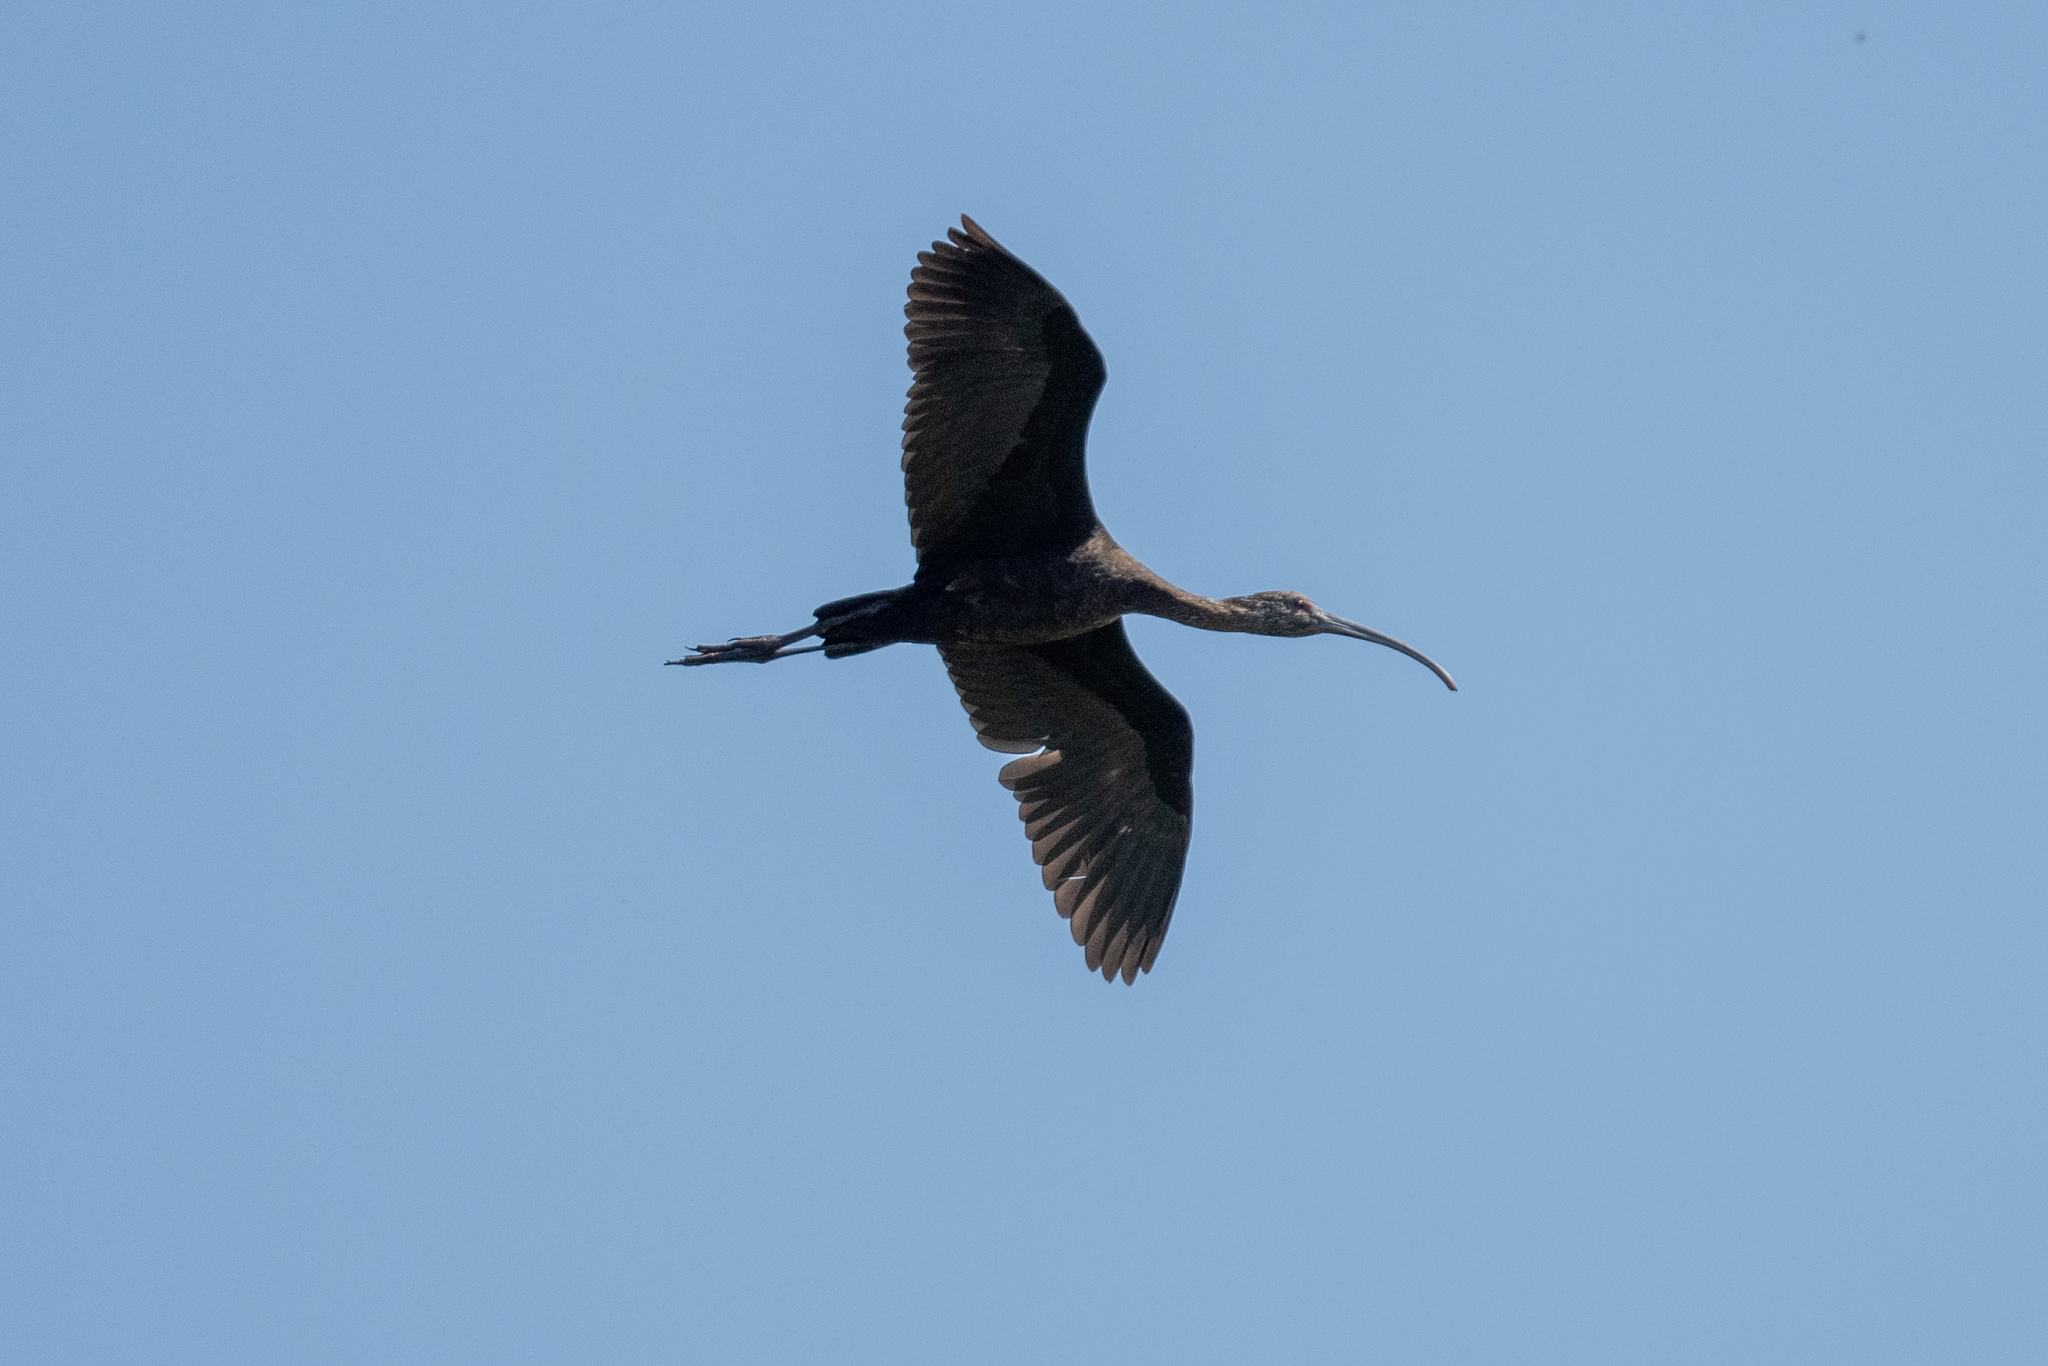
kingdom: Animalia
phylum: Chordata
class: Aves
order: Pelecaniformes
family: Threskiornithidae
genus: Plegadis
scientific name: Plegadis chihi
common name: White-faced ibis
